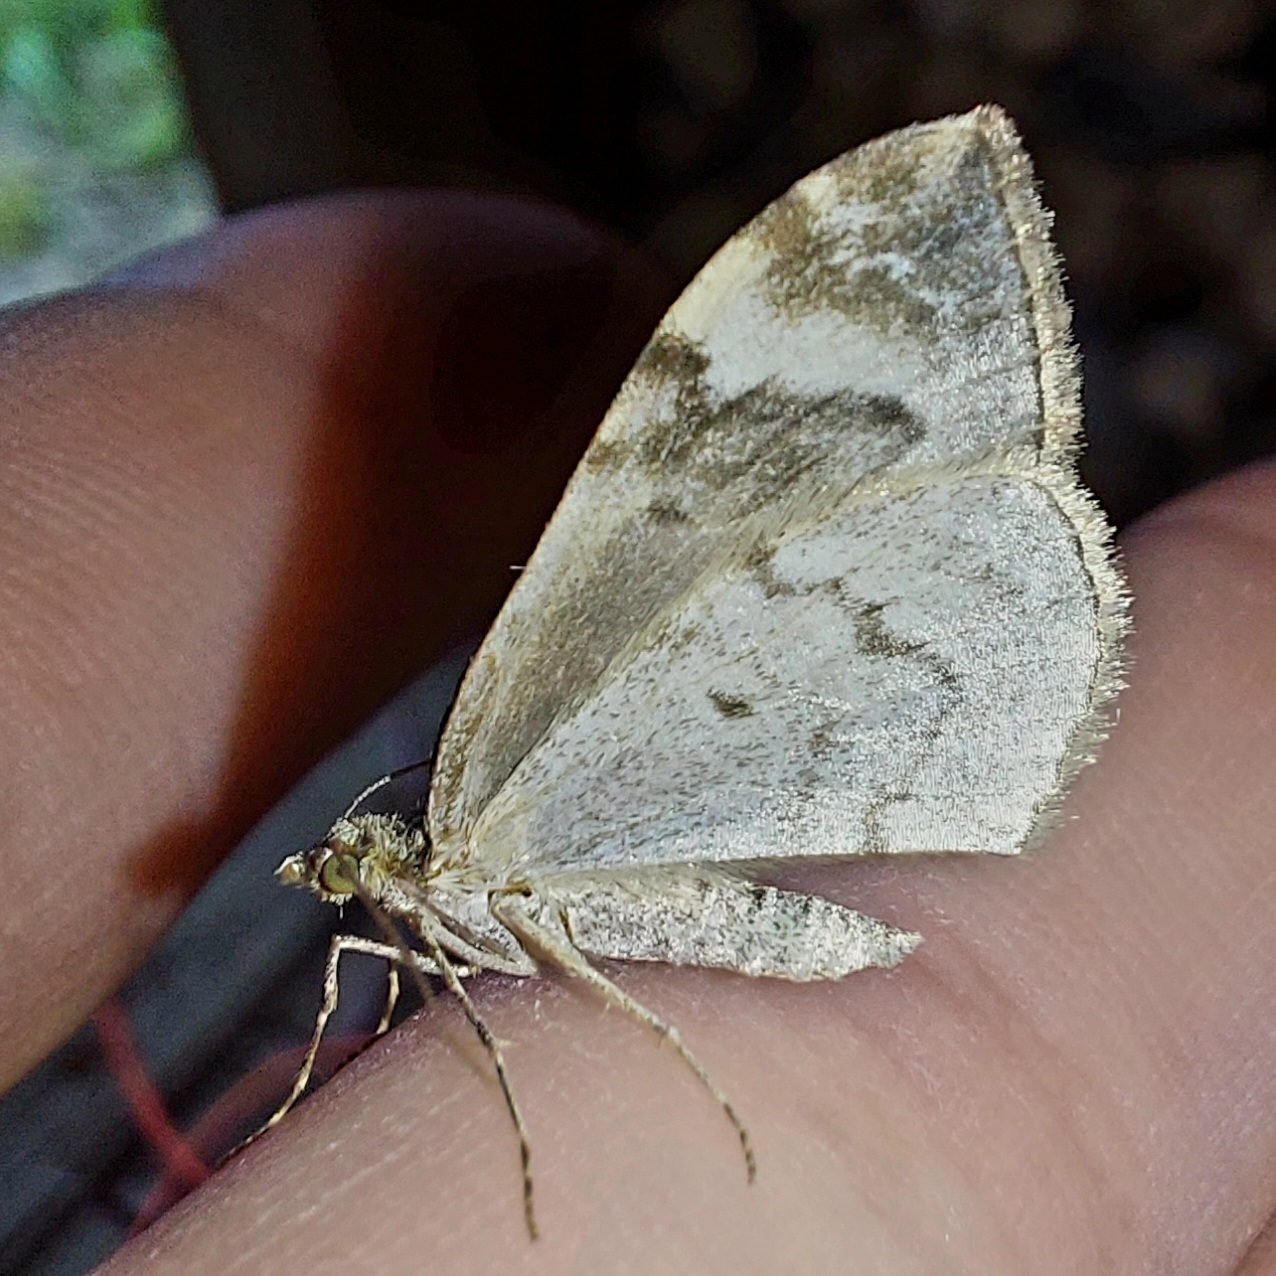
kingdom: Animalia
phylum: Arthropoda
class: Insecta
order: Lepidoptera
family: Geometridae
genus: Dysstroma
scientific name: Dysstroma citrata
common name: Dark marbled carpet
